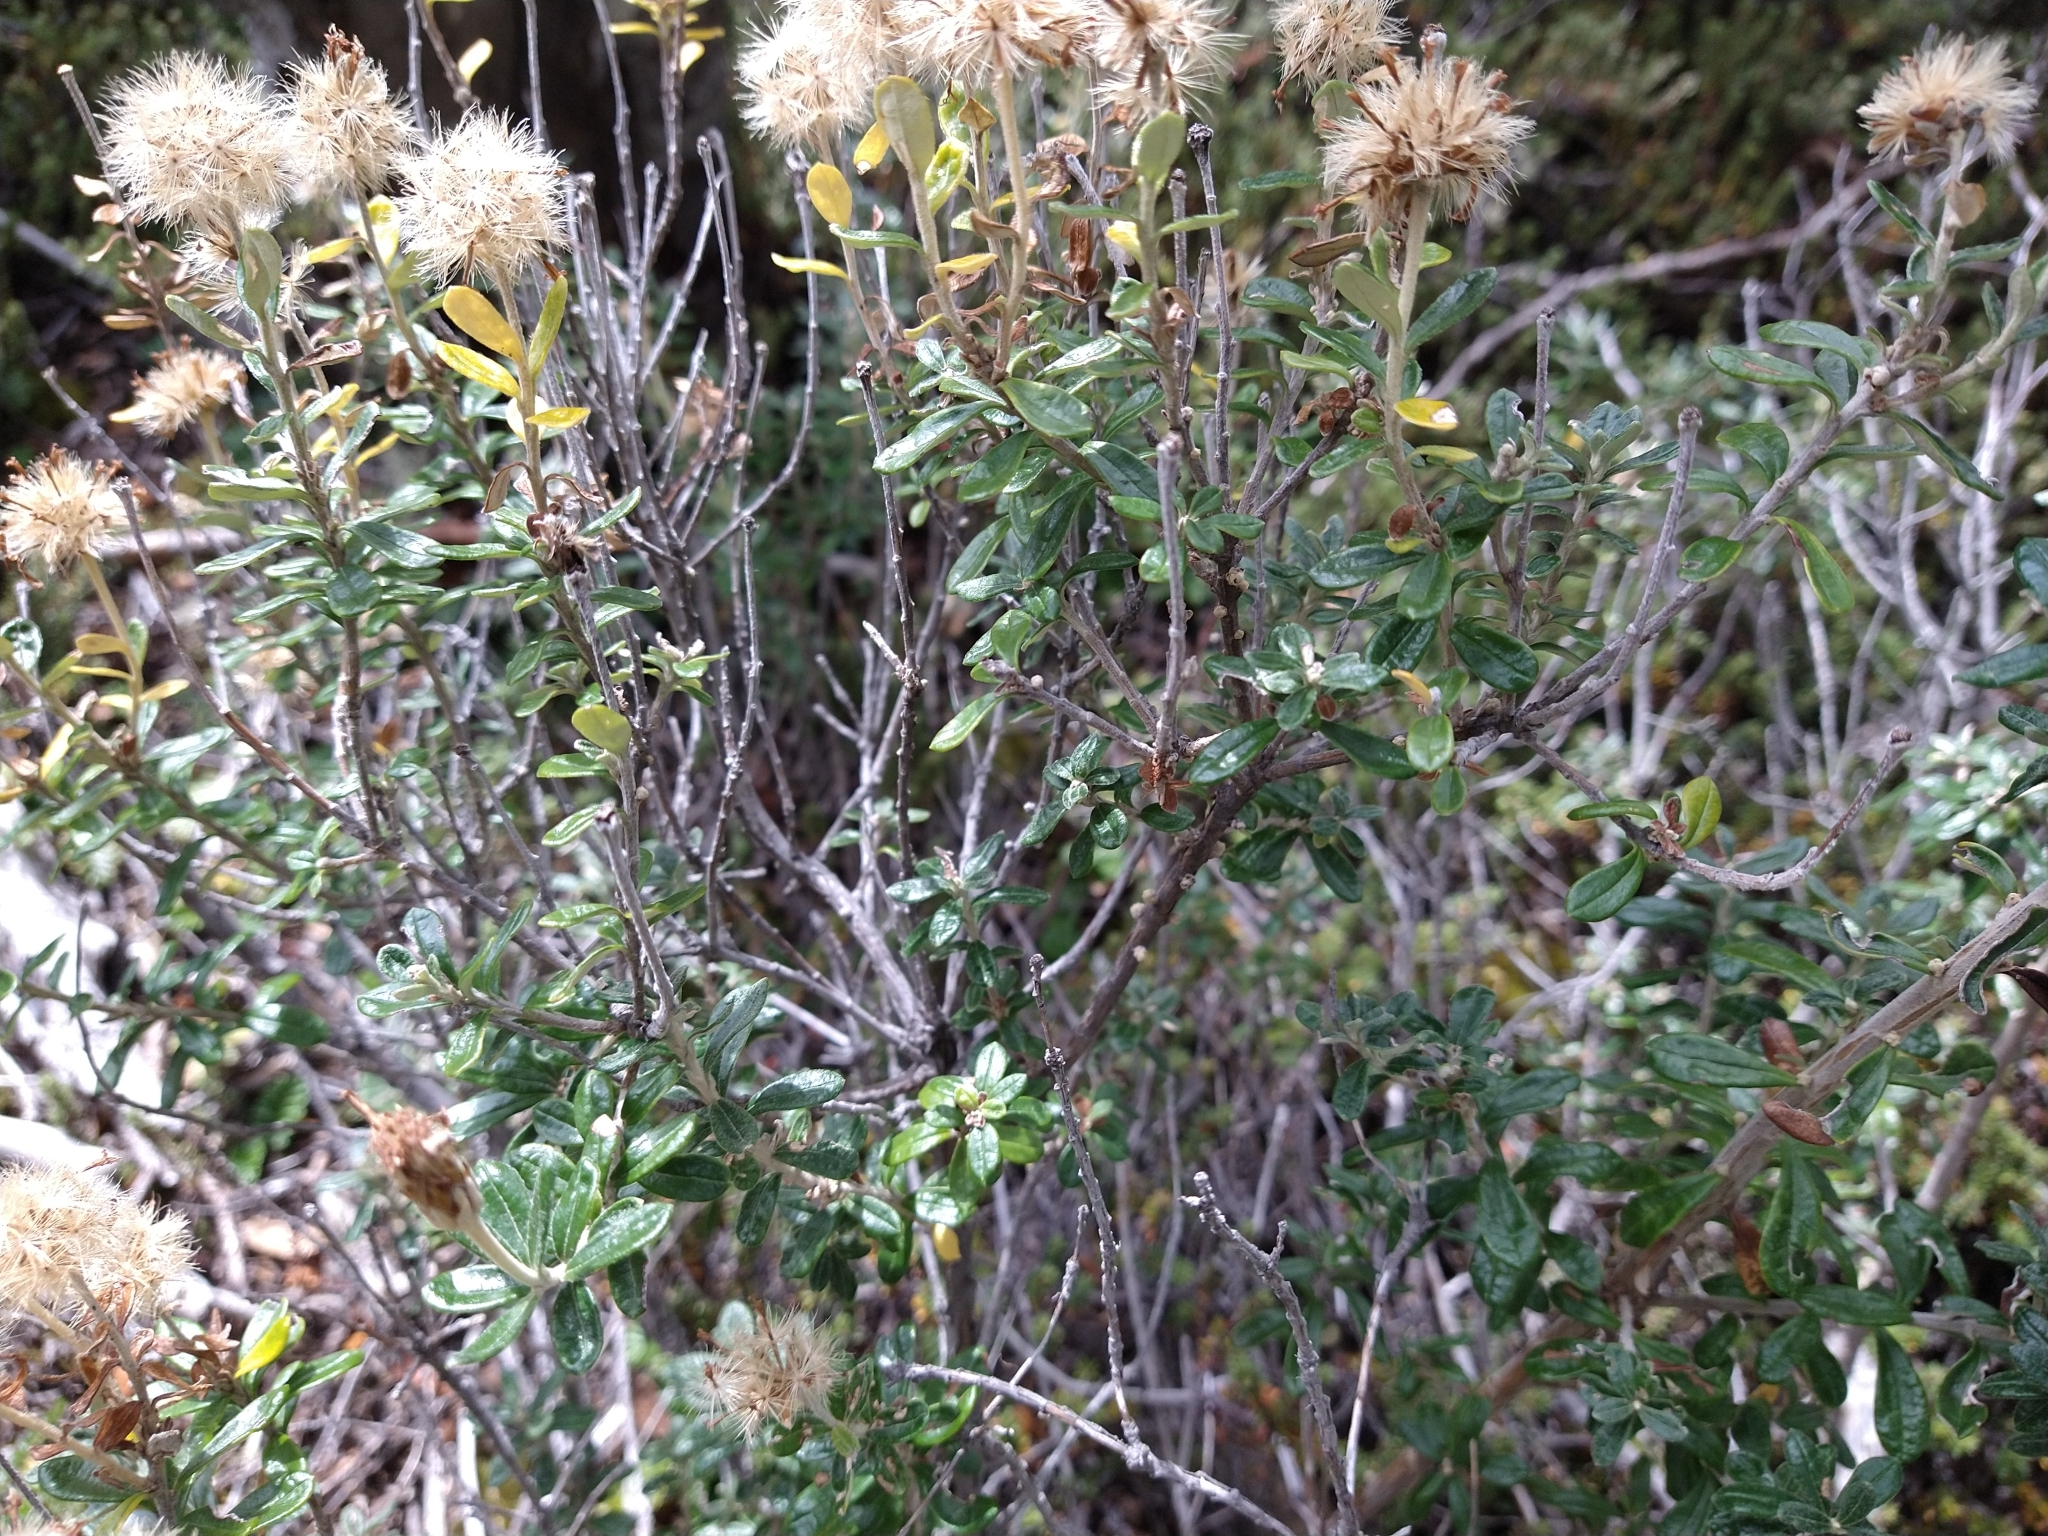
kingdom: Plantae
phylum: Tracheophyta
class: Magnoliopsida
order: Asterales
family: Asteraceae
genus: Chiliotrichum
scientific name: Chiliotrichum diffusum
